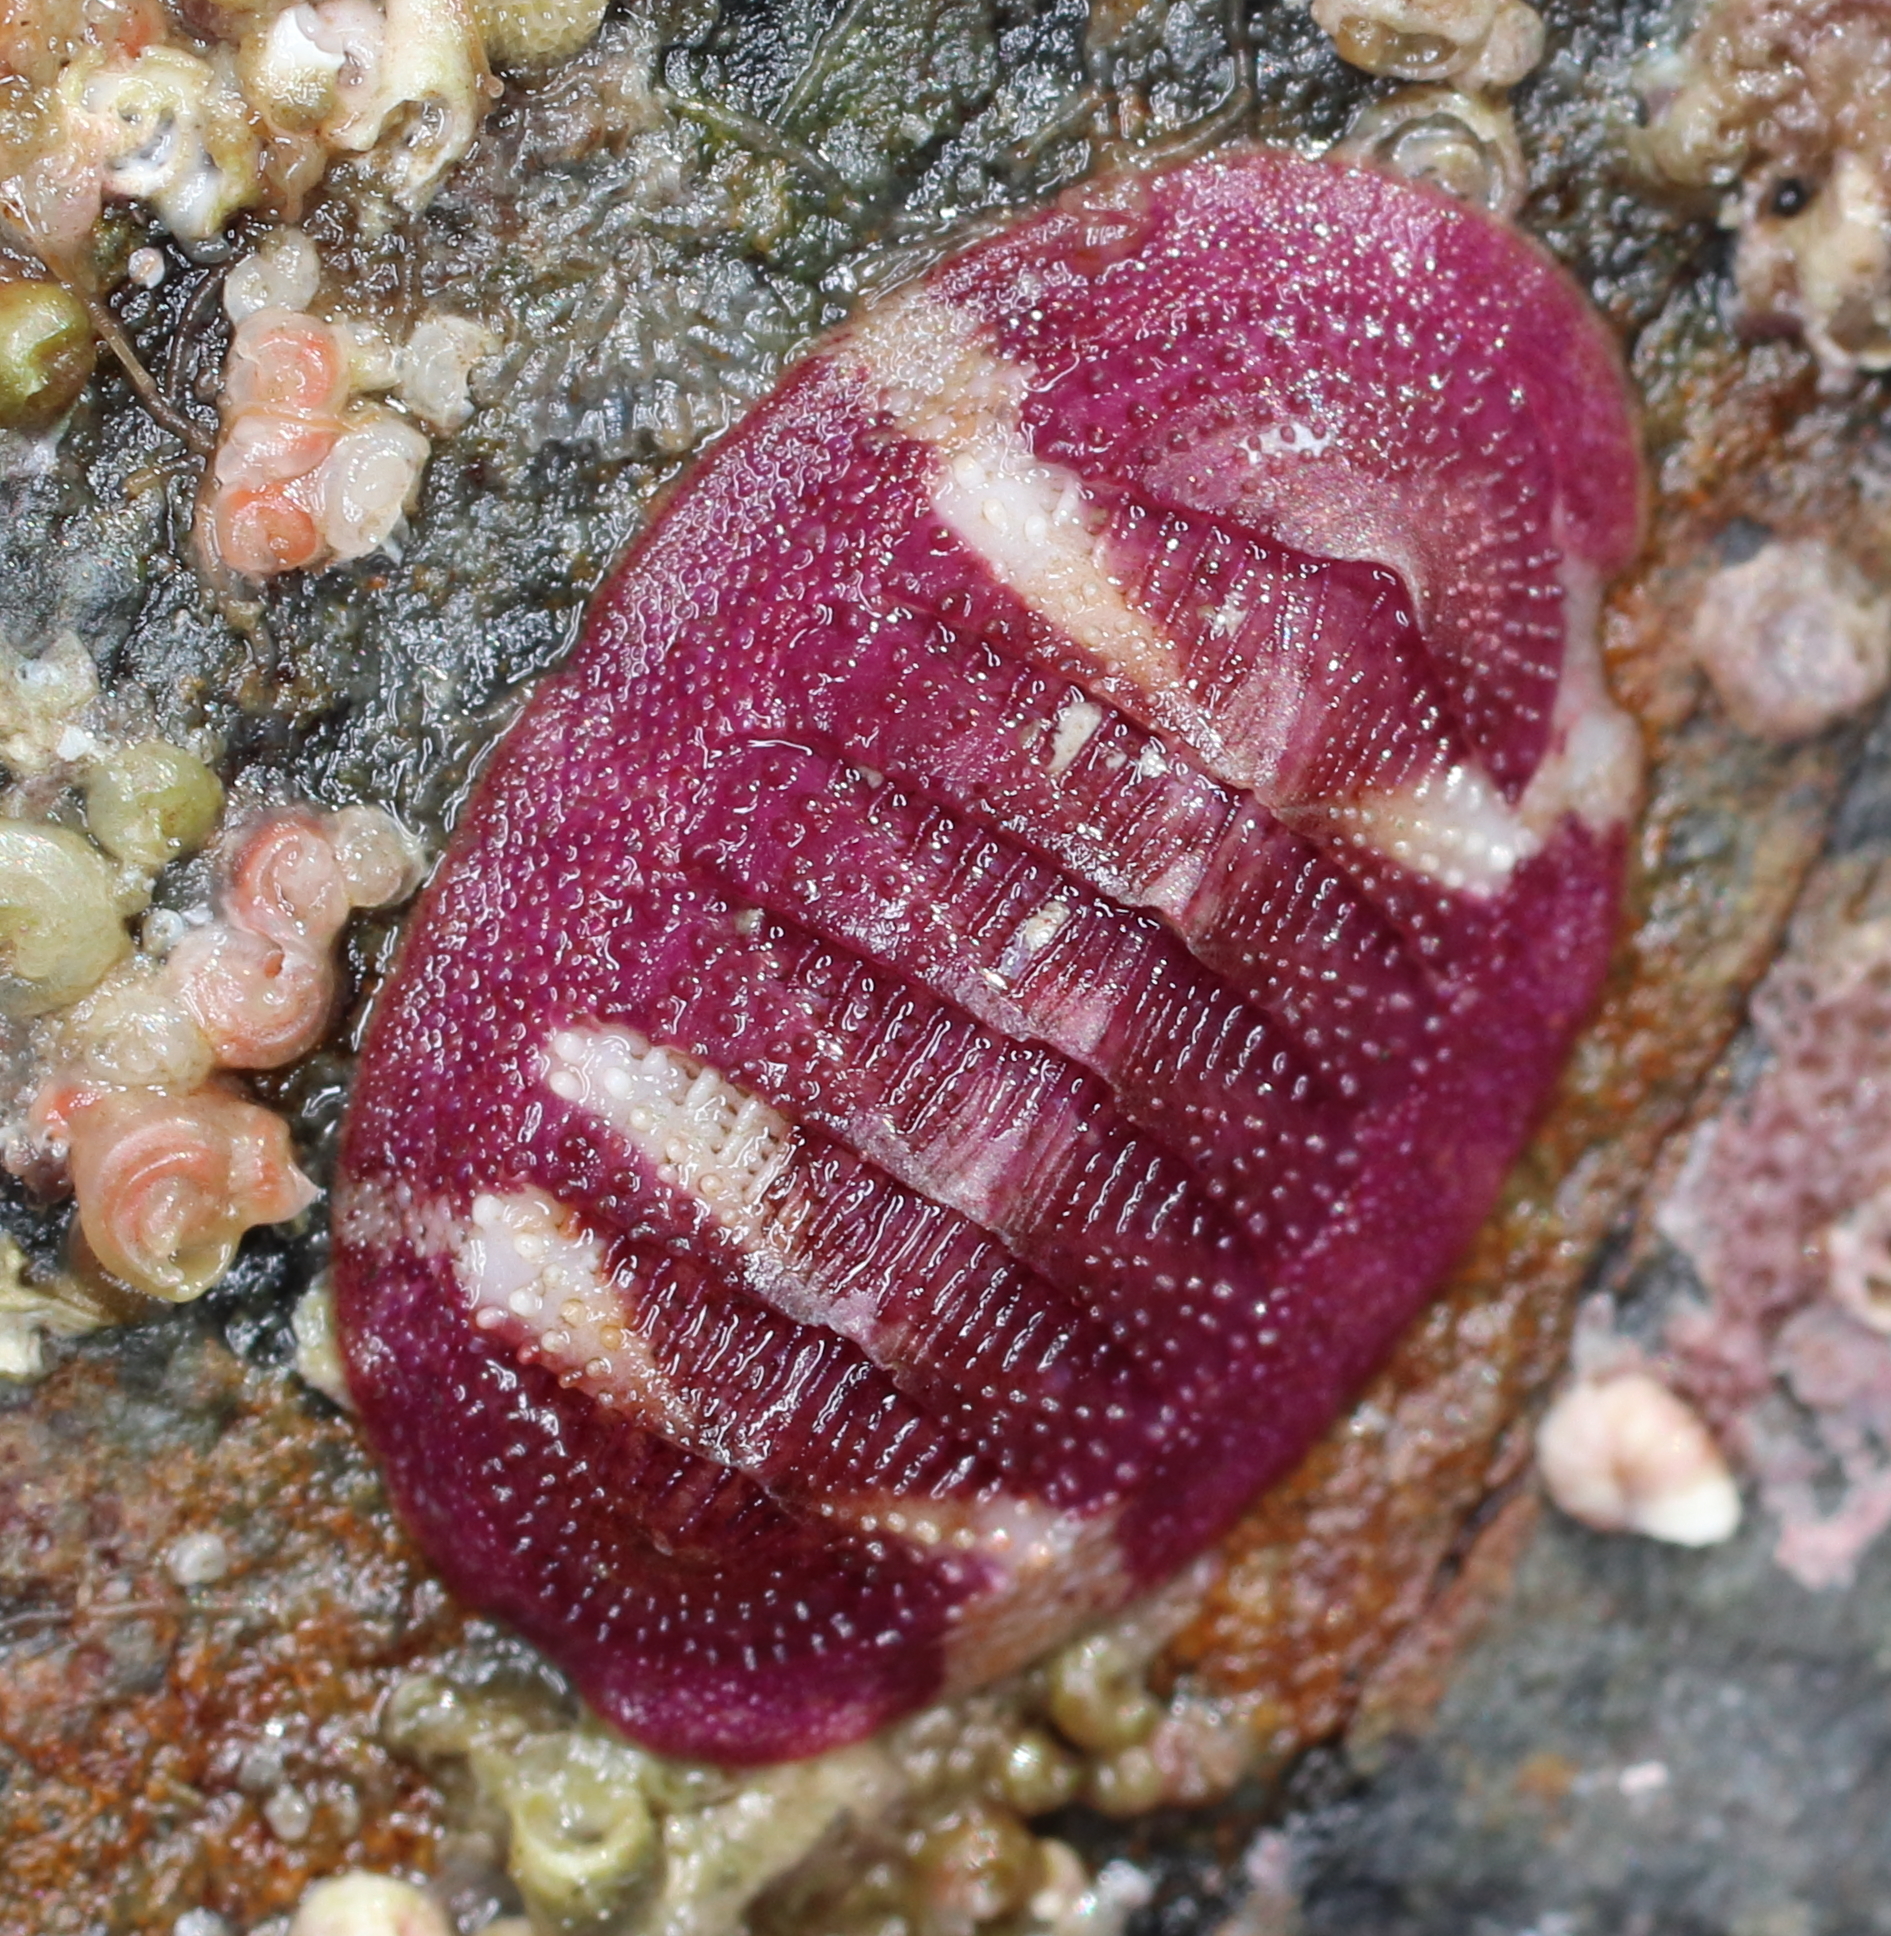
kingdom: Animalia
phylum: Mollusca
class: Polyplacophora
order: Chitonida
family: Ischnochitonidae
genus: Lepidozona
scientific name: Lepidozona mertensii
